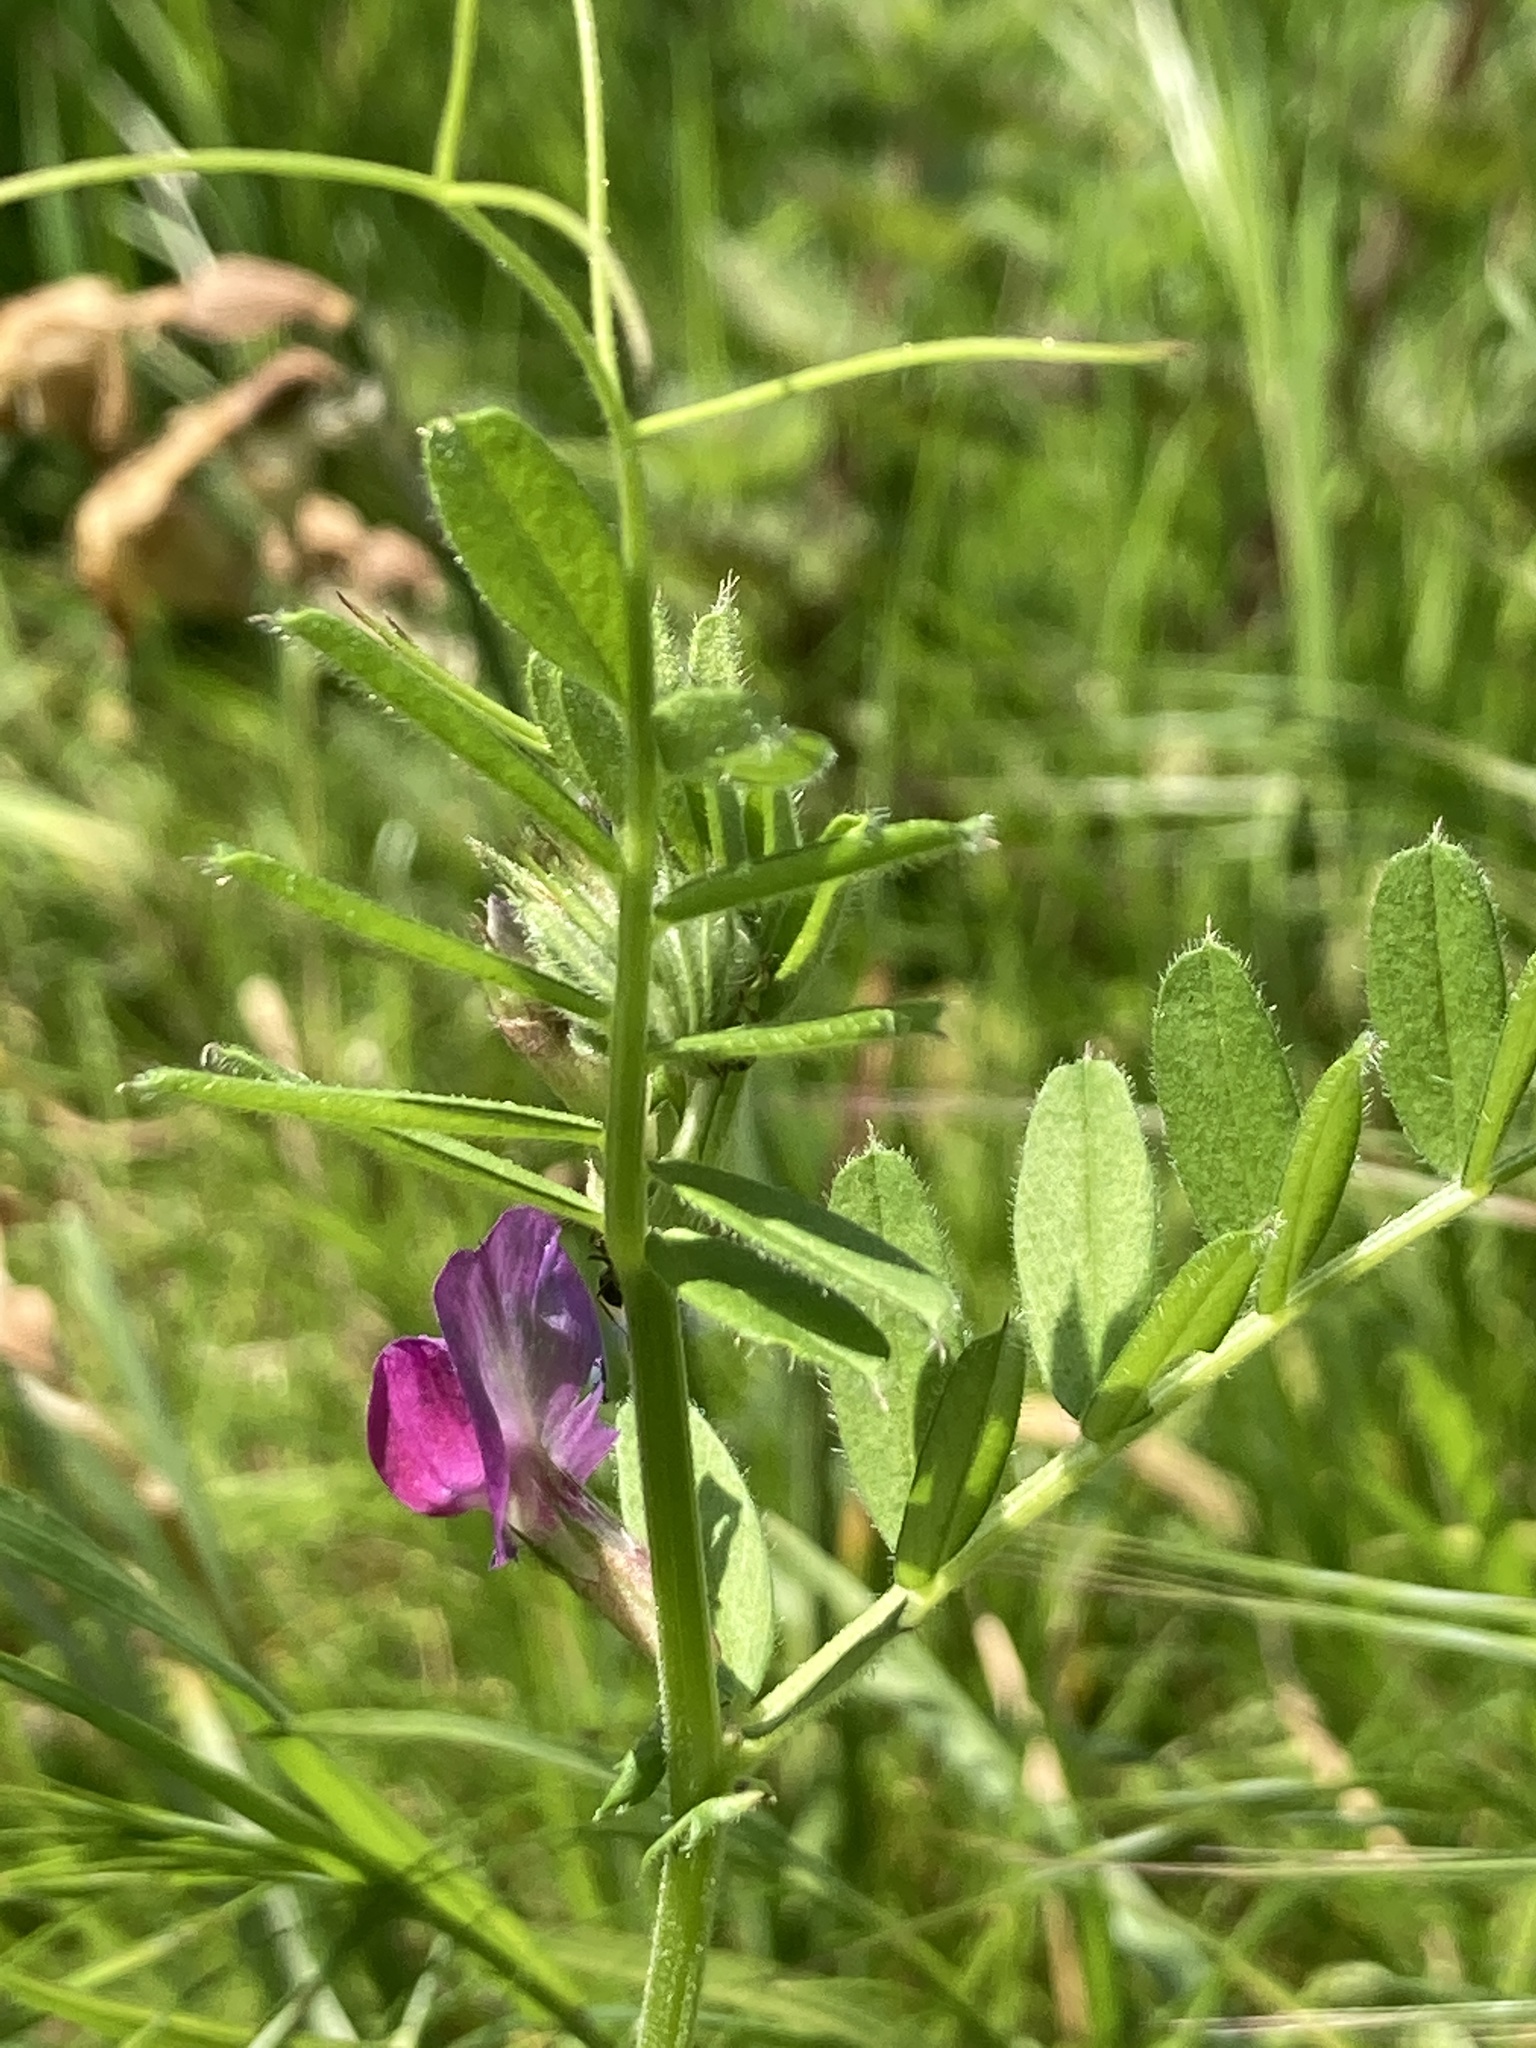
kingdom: Plantae
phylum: Tracheophyta
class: Magnoliopsida
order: Fabales
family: Fabaceae
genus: Vicia
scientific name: Vicia sativa
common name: Garden vetch
